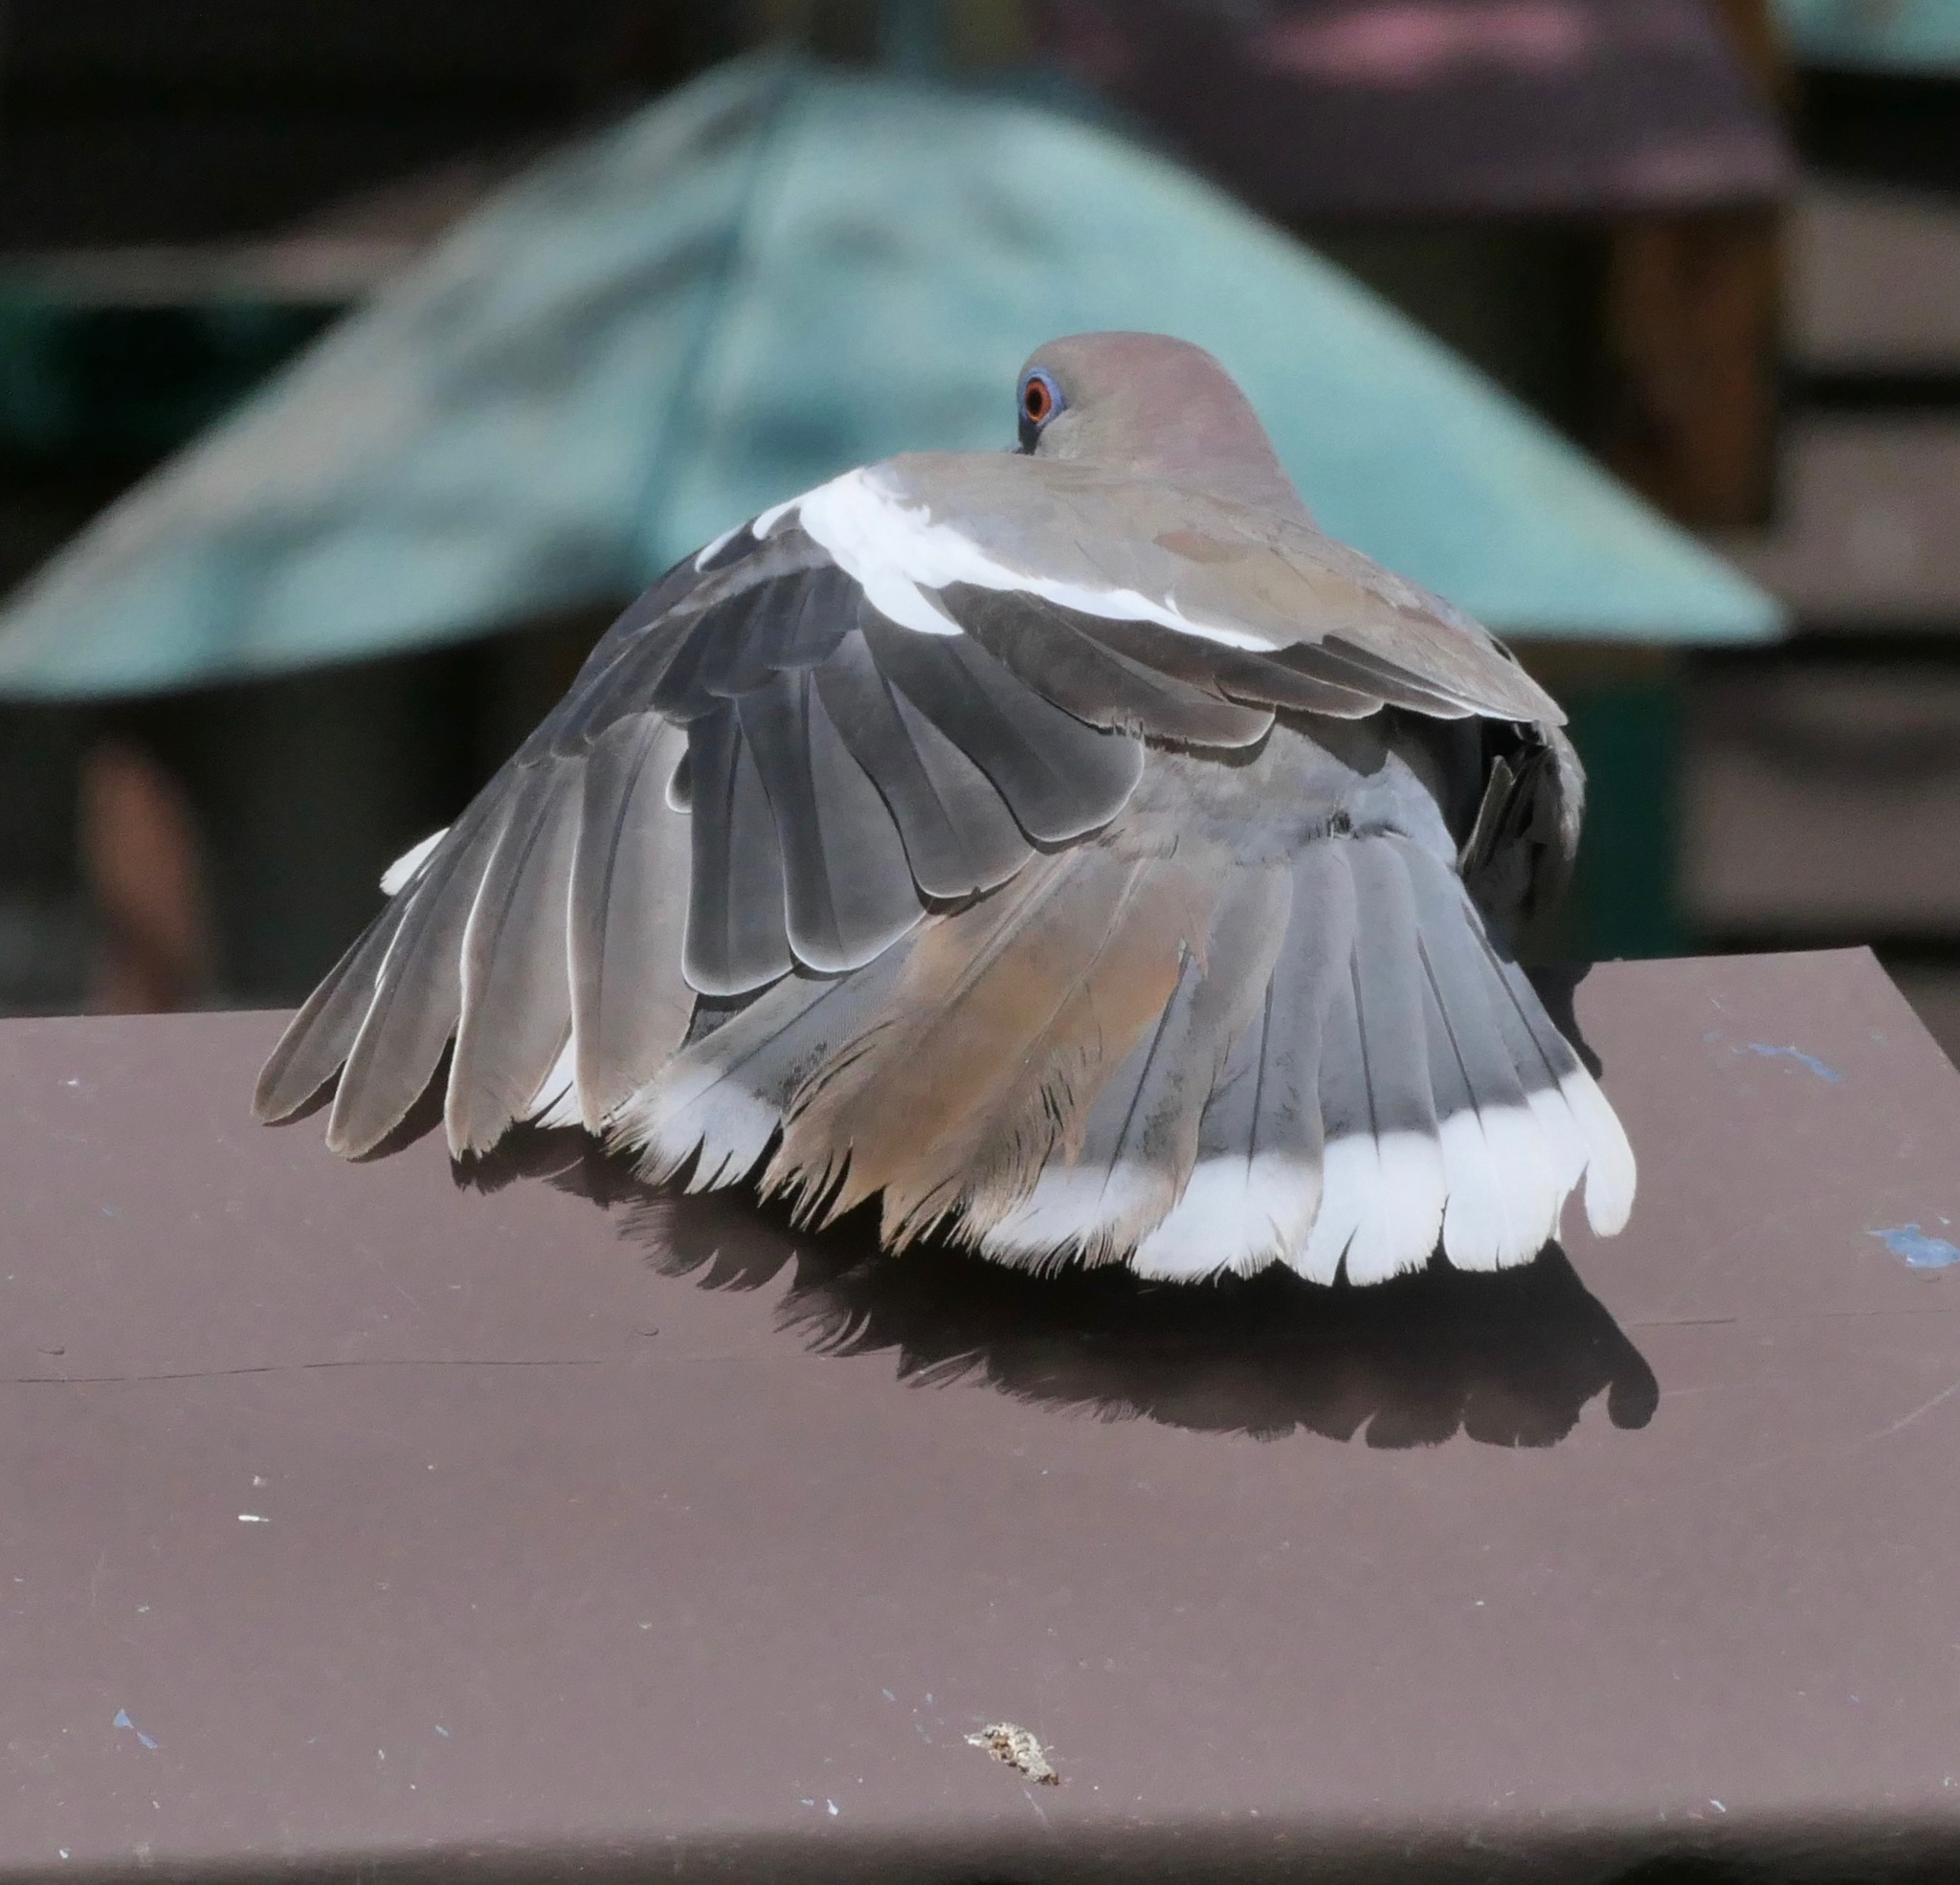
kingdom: Animalia
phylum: Chordata
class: Aves
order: Columbiformes
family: Columbidae
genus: Zenaida
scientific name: Zenaida asiatica
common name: White-winged dove
